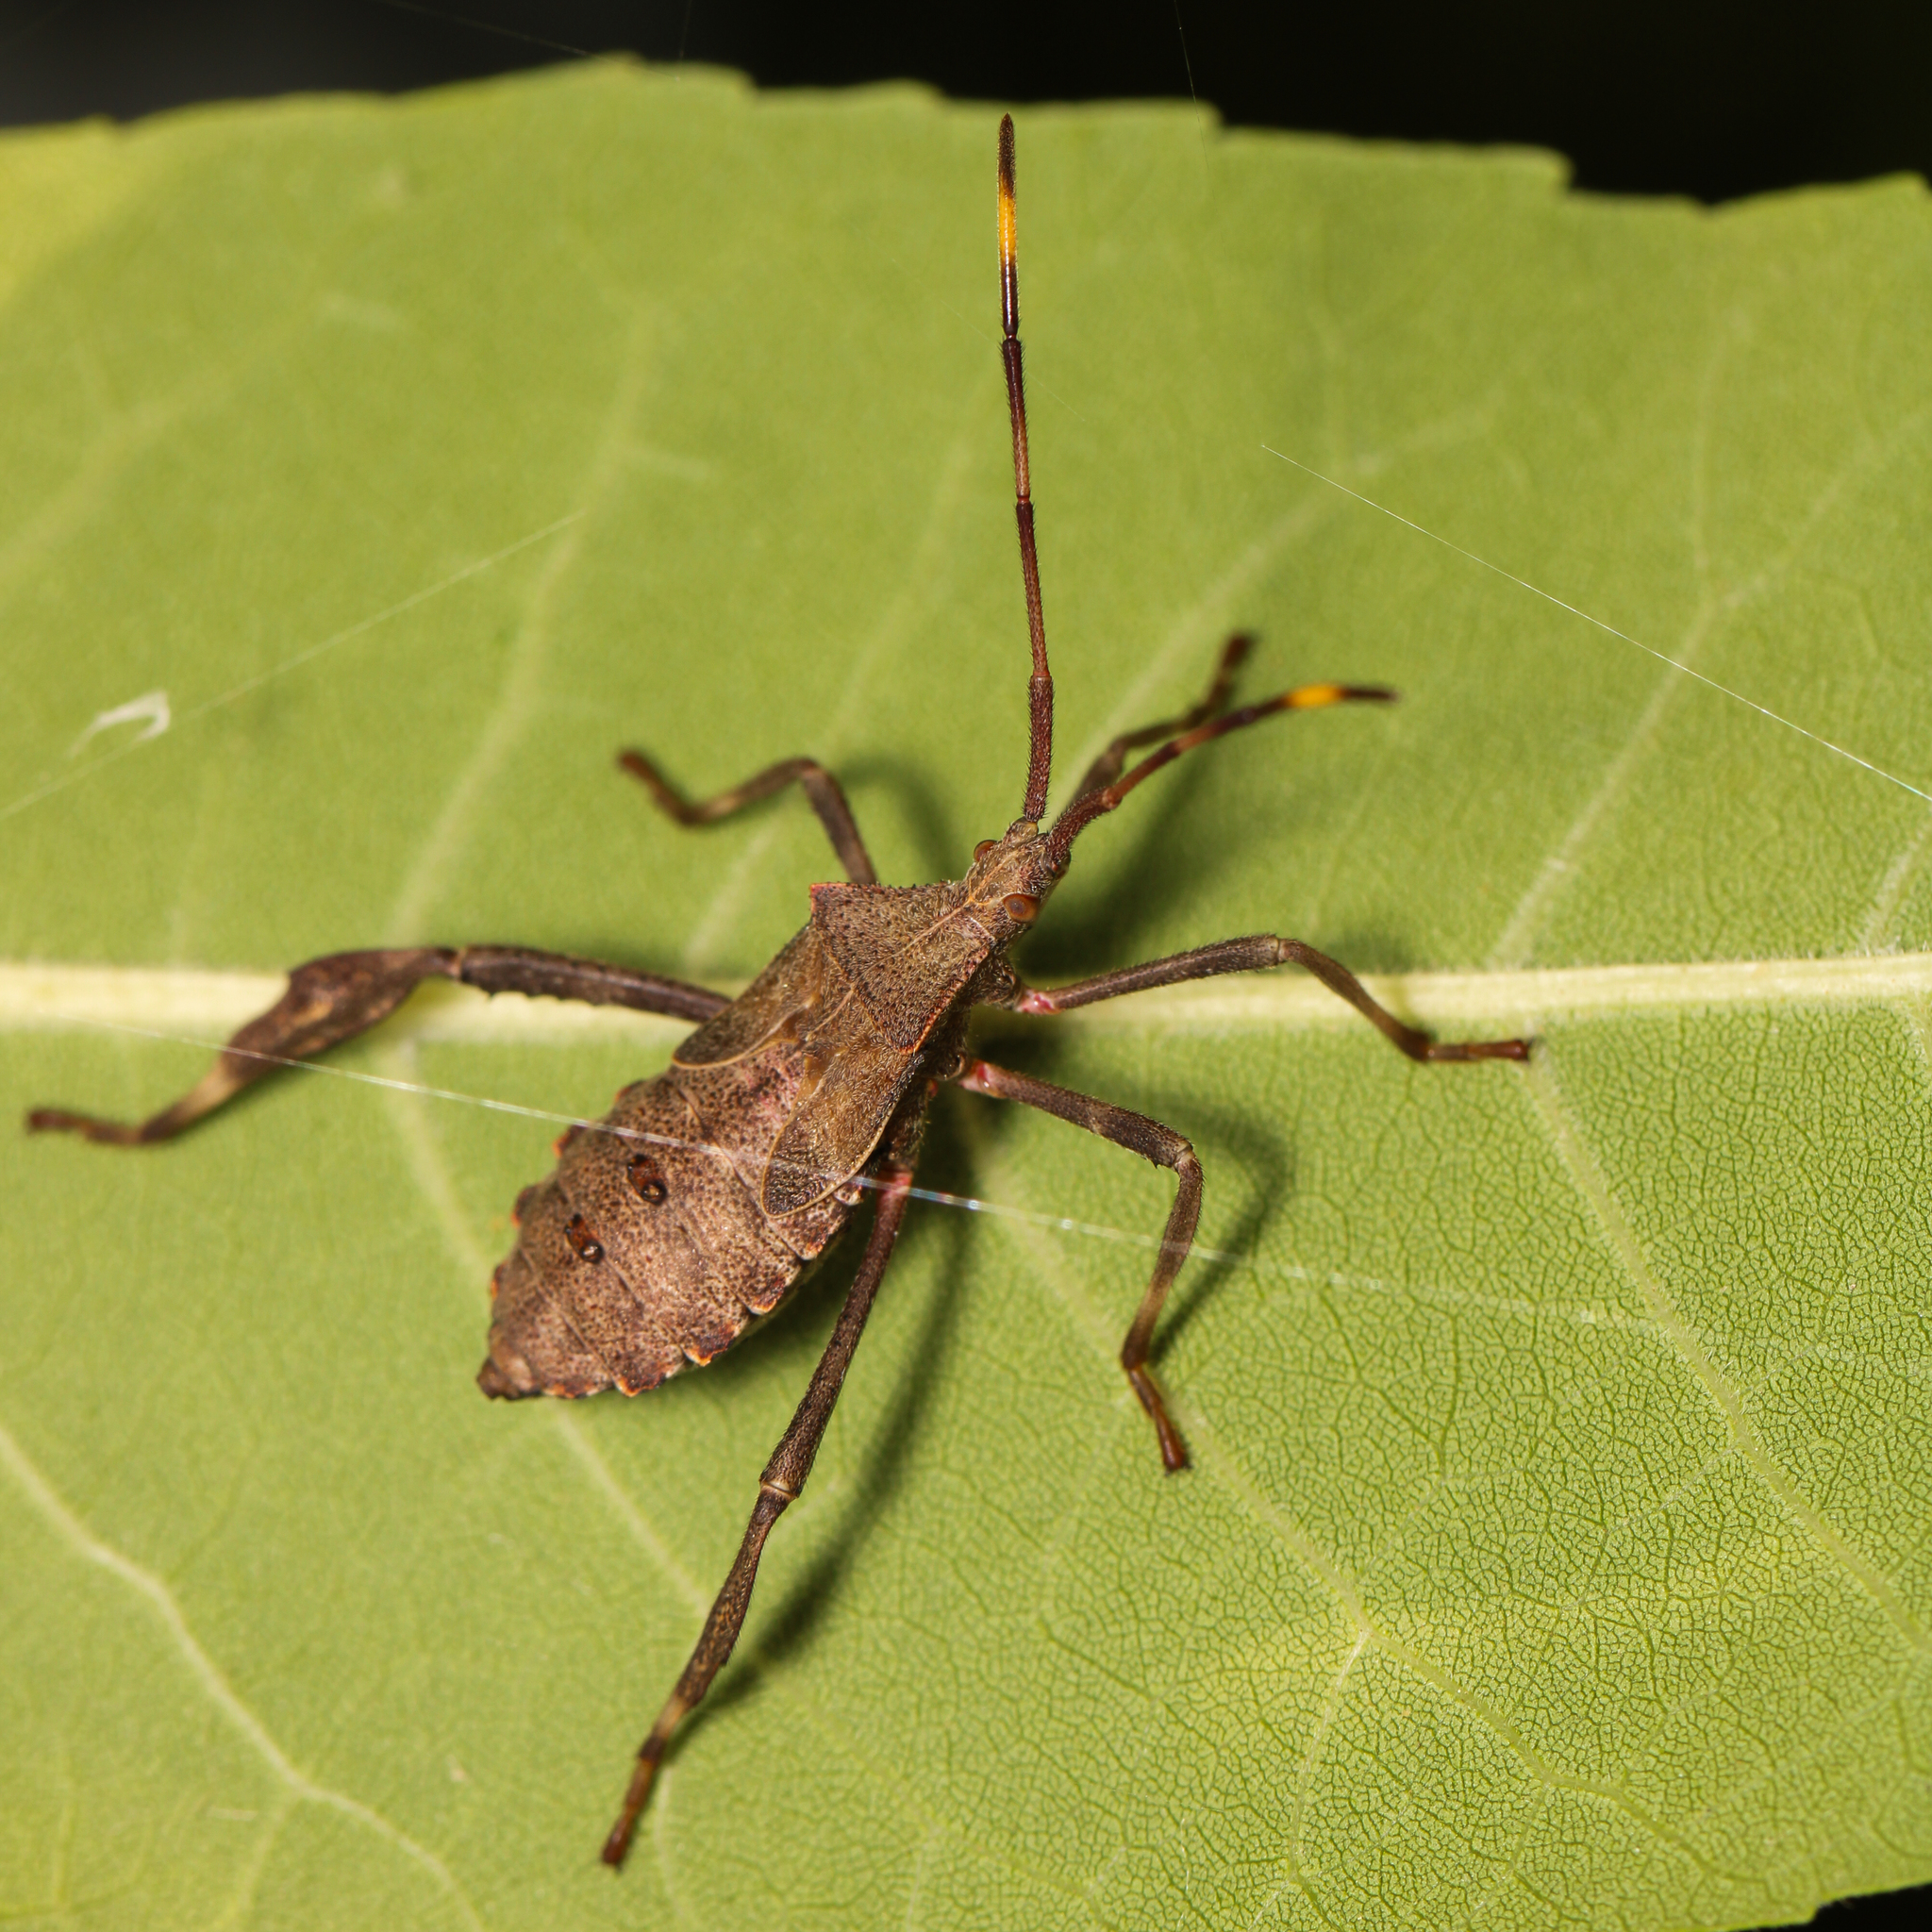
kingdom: Animalia
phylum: Arthropoda
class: Insecta
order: Hemiptera
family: Coreidae
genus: Acanthocephala
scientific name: Acanthocephala terminalis
